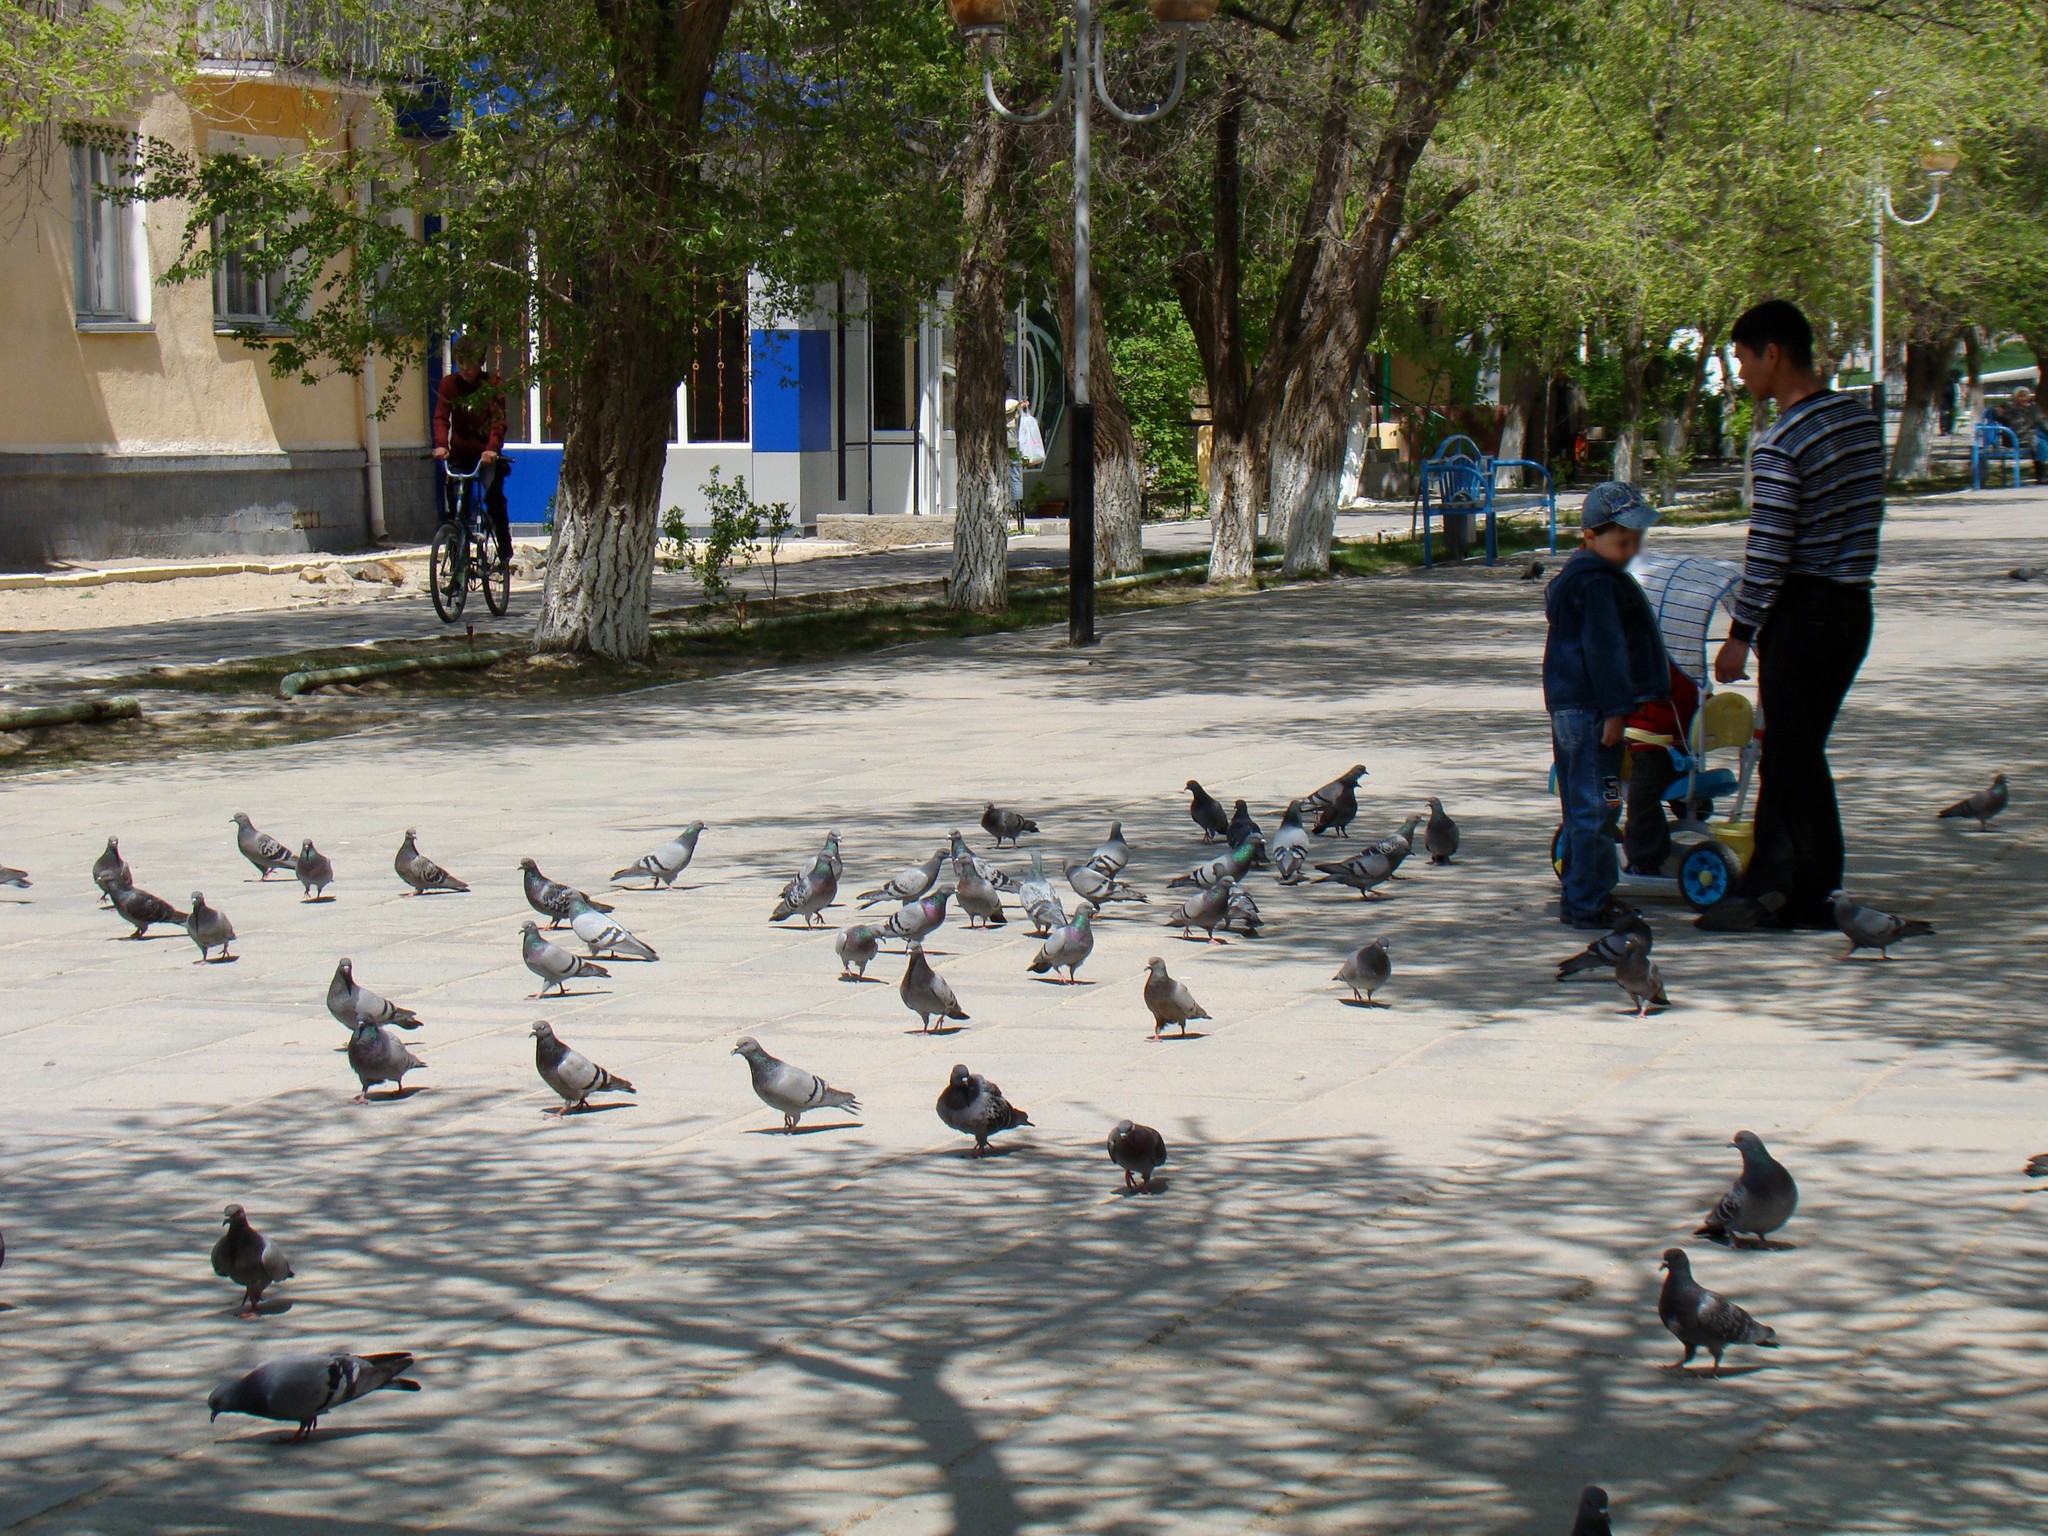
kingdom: Animalia
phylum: Chordata
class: Aves
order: Columbiformes
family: Columbidae
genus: Columba
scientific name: Columba livia
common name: Rock pigeon
